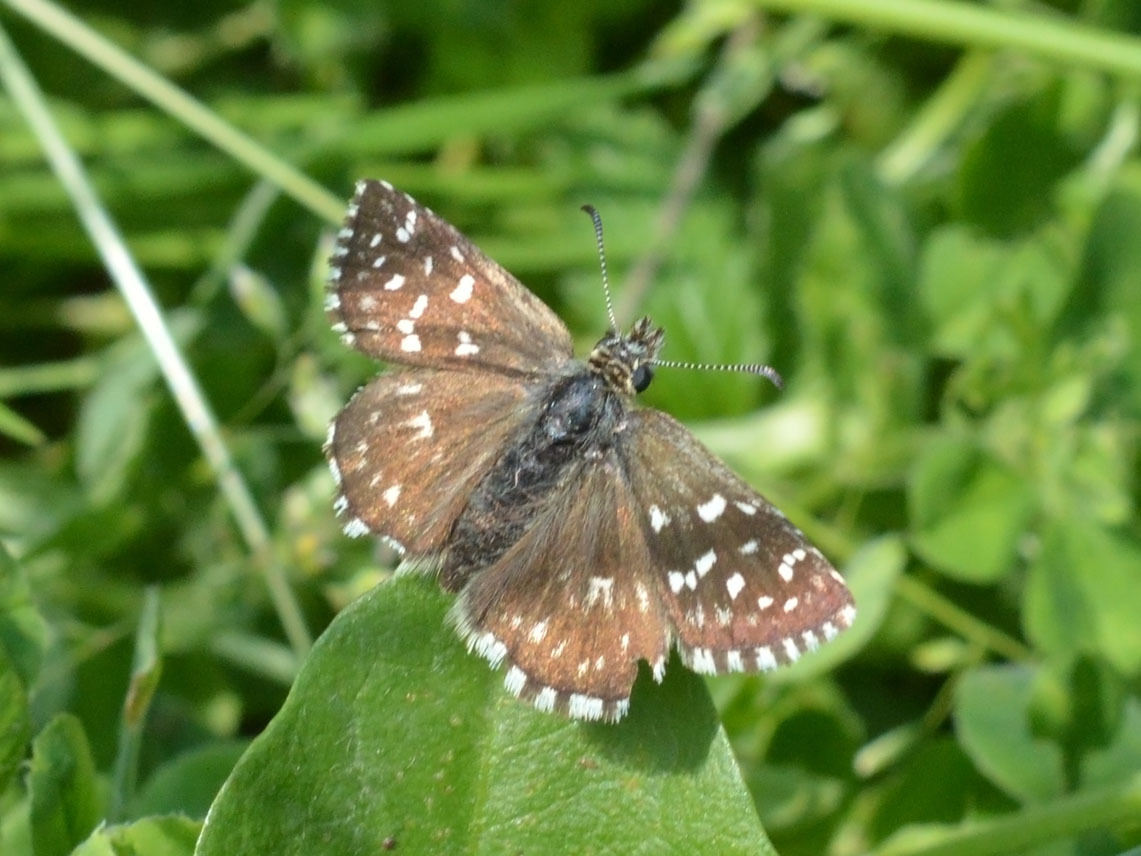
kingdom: Animalia
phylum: Arthropoda
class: Insecta
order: Lepidoptera
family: Hesperiidae
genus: Pyrgus
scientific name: Pyrgus malvae
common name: Grizzled skipper
